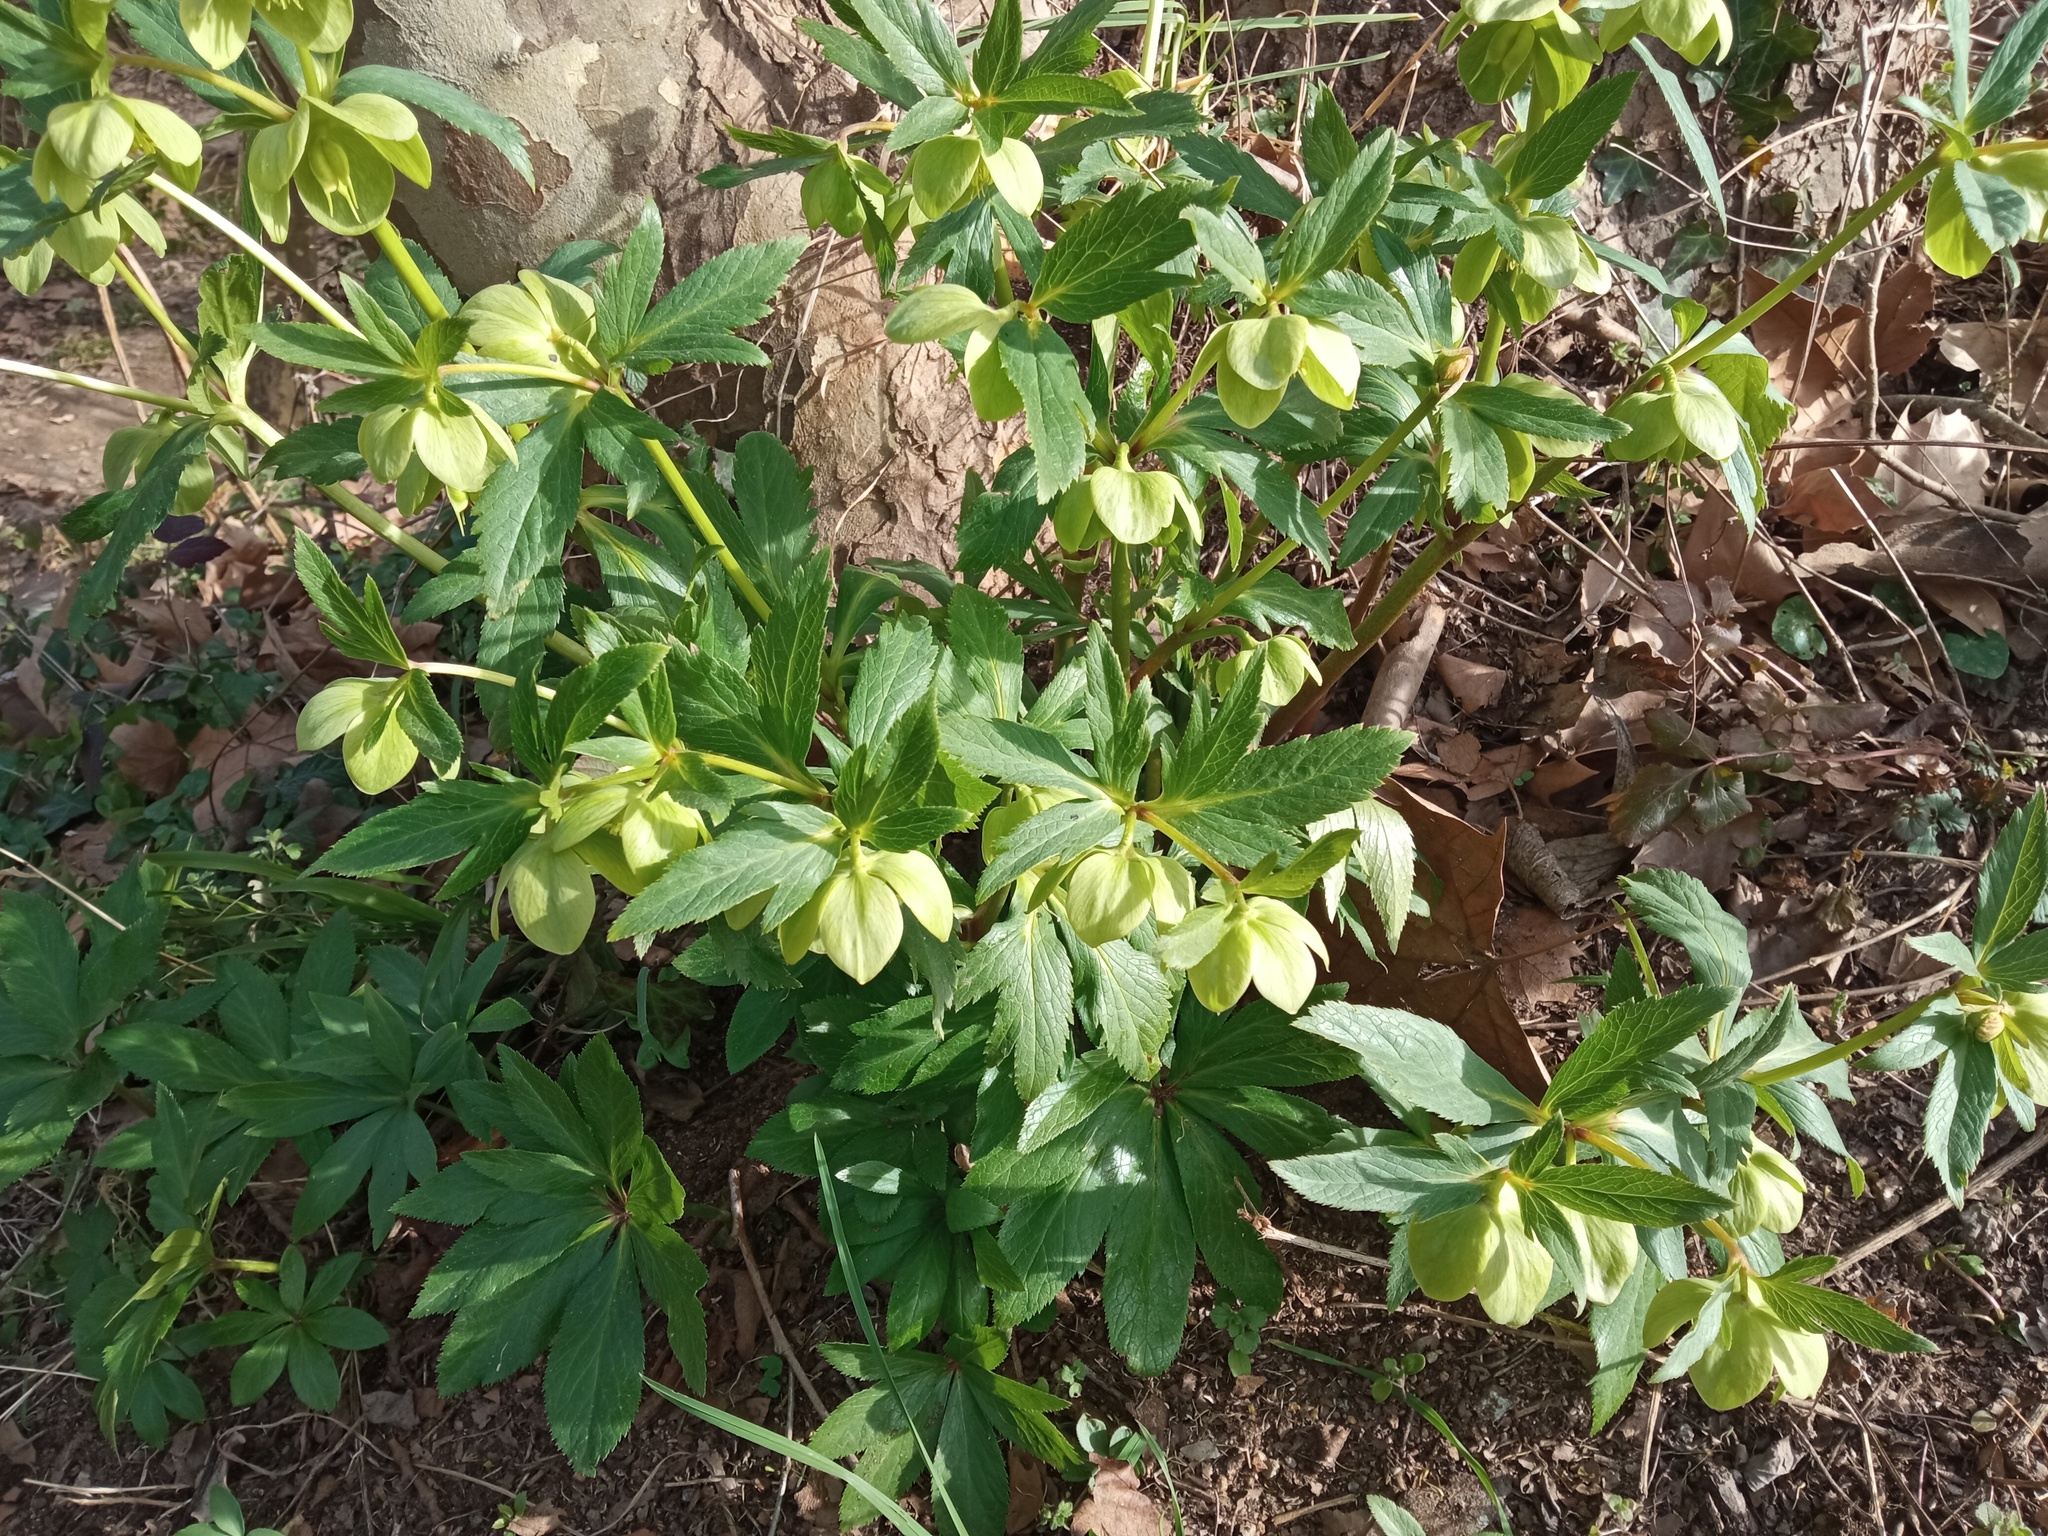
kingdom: Plantae
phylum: Tracheophyta
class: Magnoliopsida
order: Ranunculales
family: Ranunculaceae
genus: Helleborus
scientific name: Helleborus viridis
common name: Green hellebore
